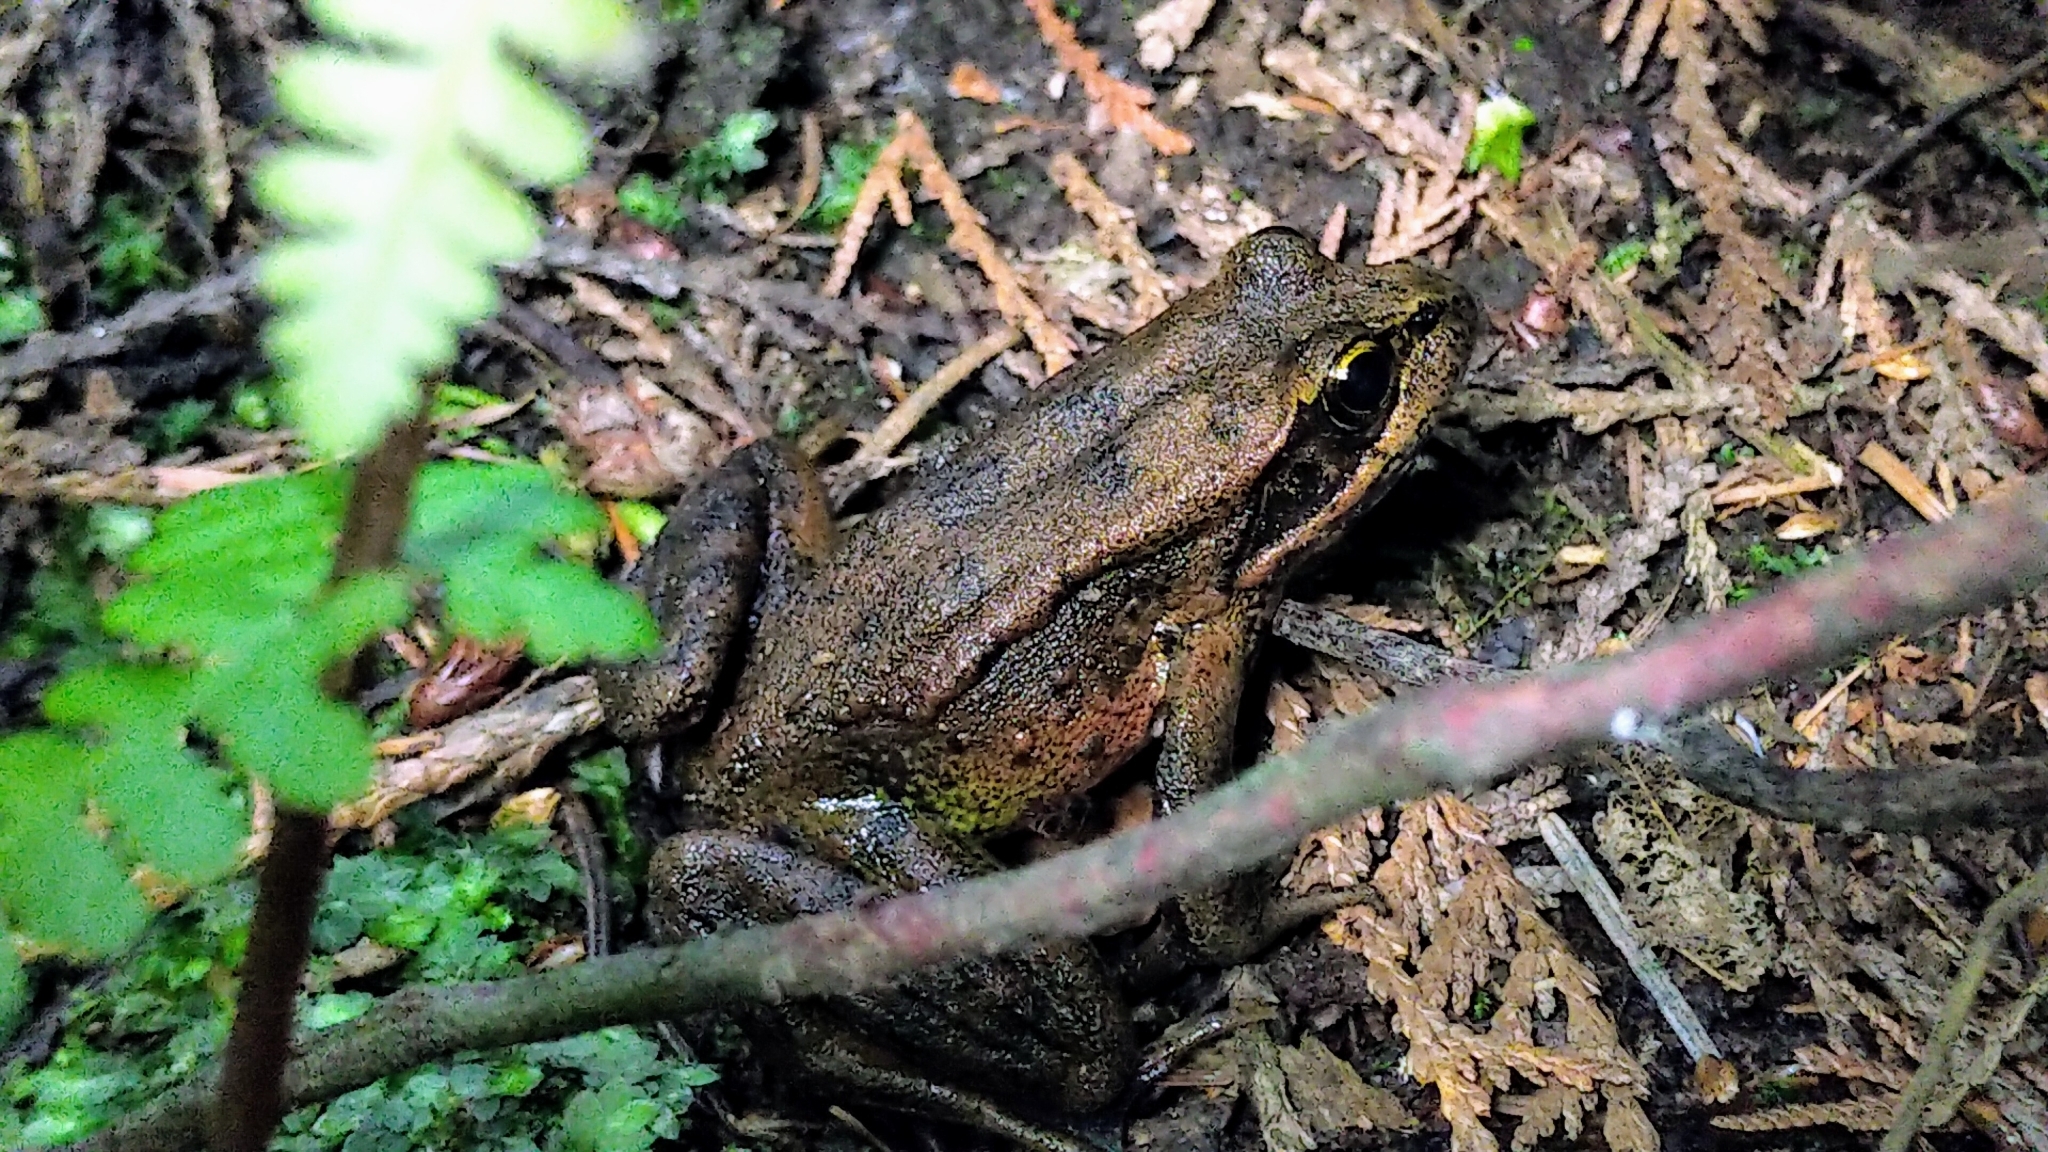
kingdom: Animalia
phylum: Chordata
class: Amphibia
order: Anura
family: Ranidae
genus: Rana
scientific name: Rana aurora
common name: Red-legged frog
